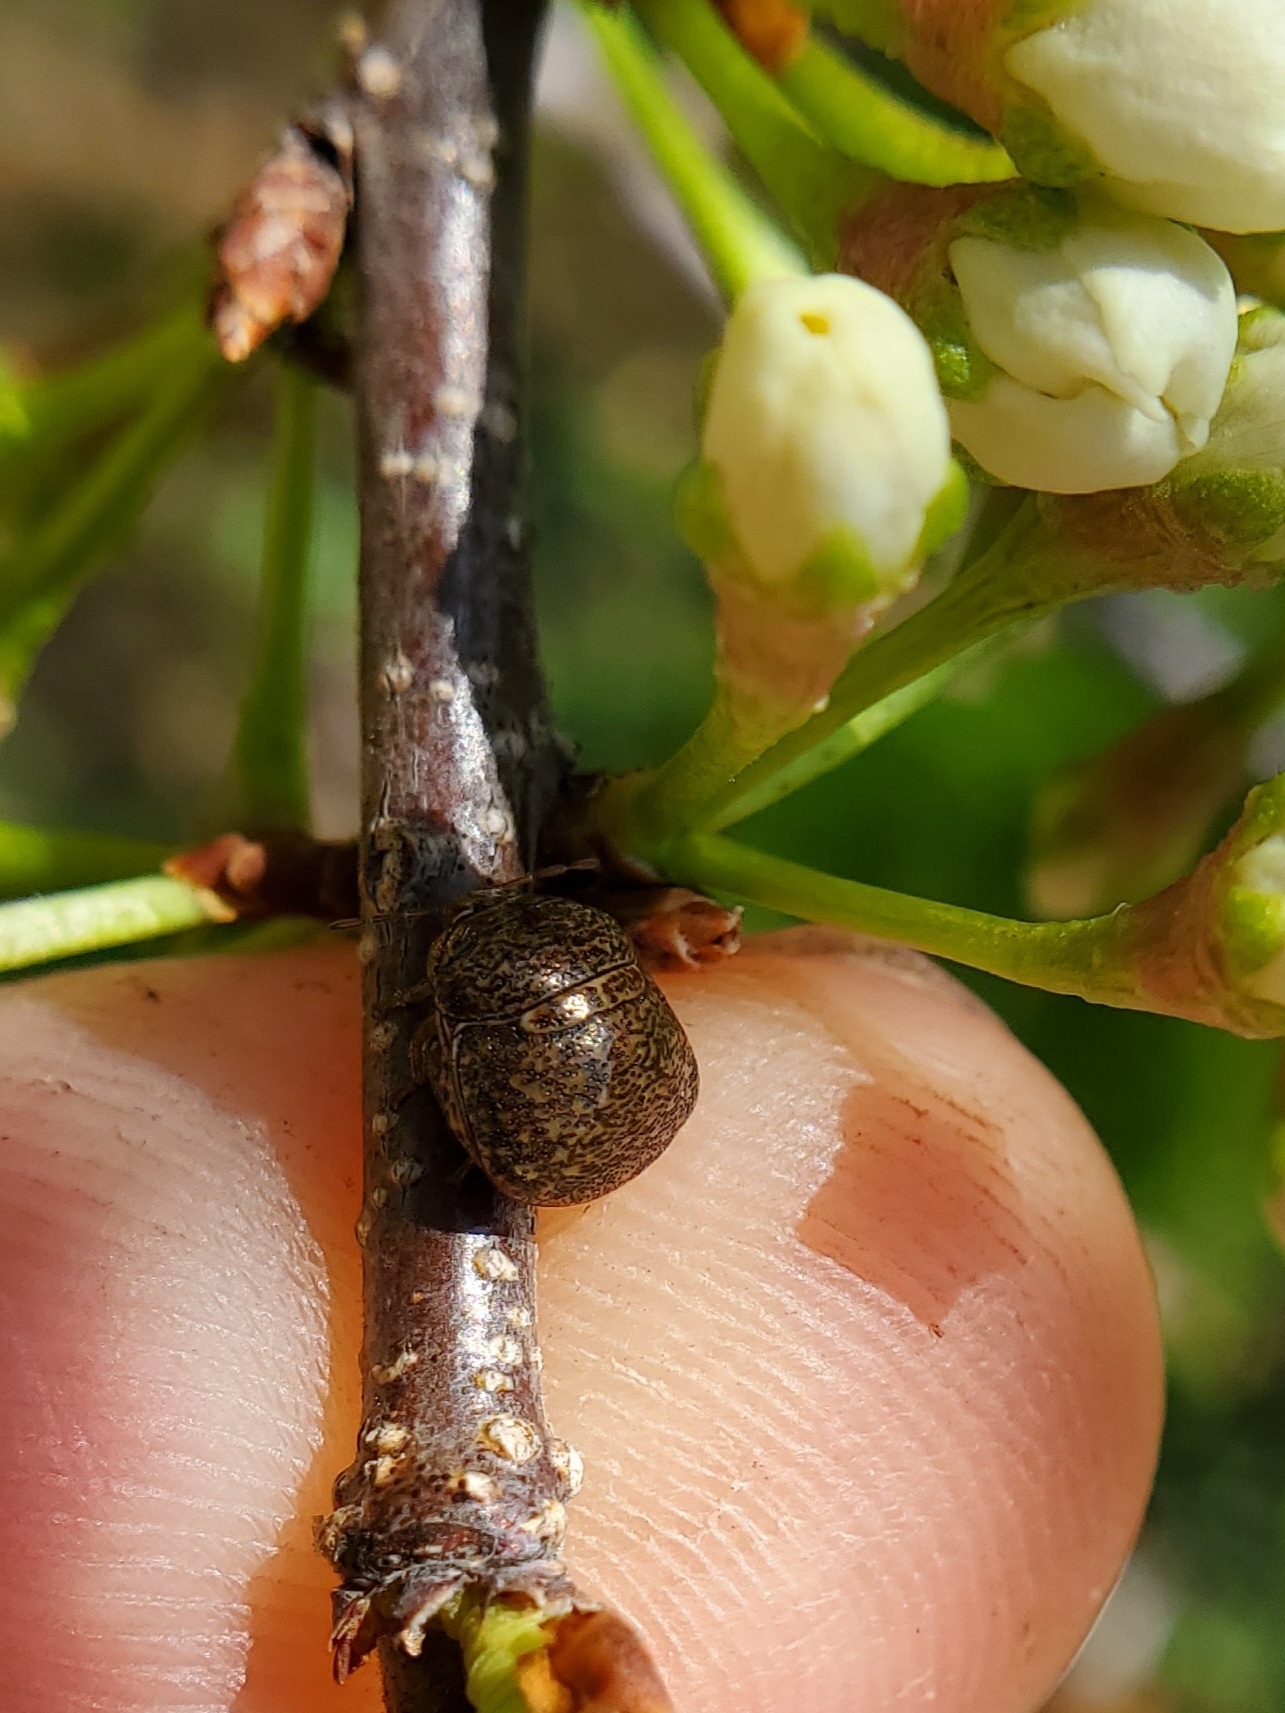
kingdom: Animalia
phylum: Arthropoda
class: Insecta
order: Hemiptera
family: Plataspidae
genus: Megacopta
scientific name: Megacopta cribraria
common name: Bean plataspid
